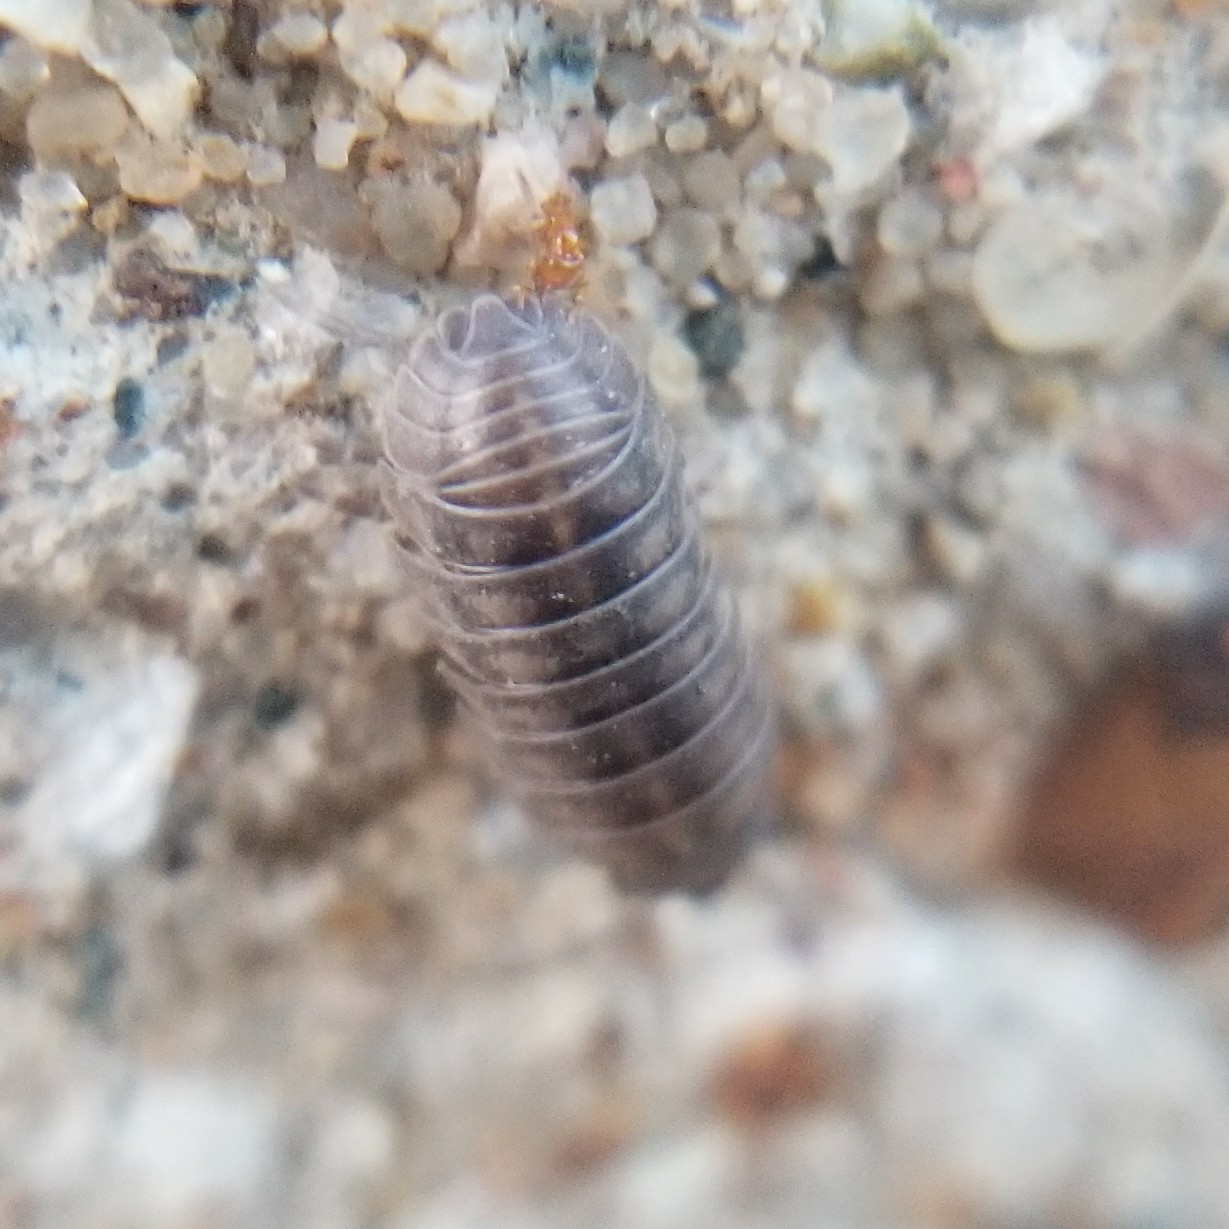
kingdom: Animalia
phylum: Arthropoda
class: Malacostraca
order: Isopoda
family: Armadillidiidae
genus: Armadillidium
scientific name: Armadillidium nasatum
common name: Isopod
